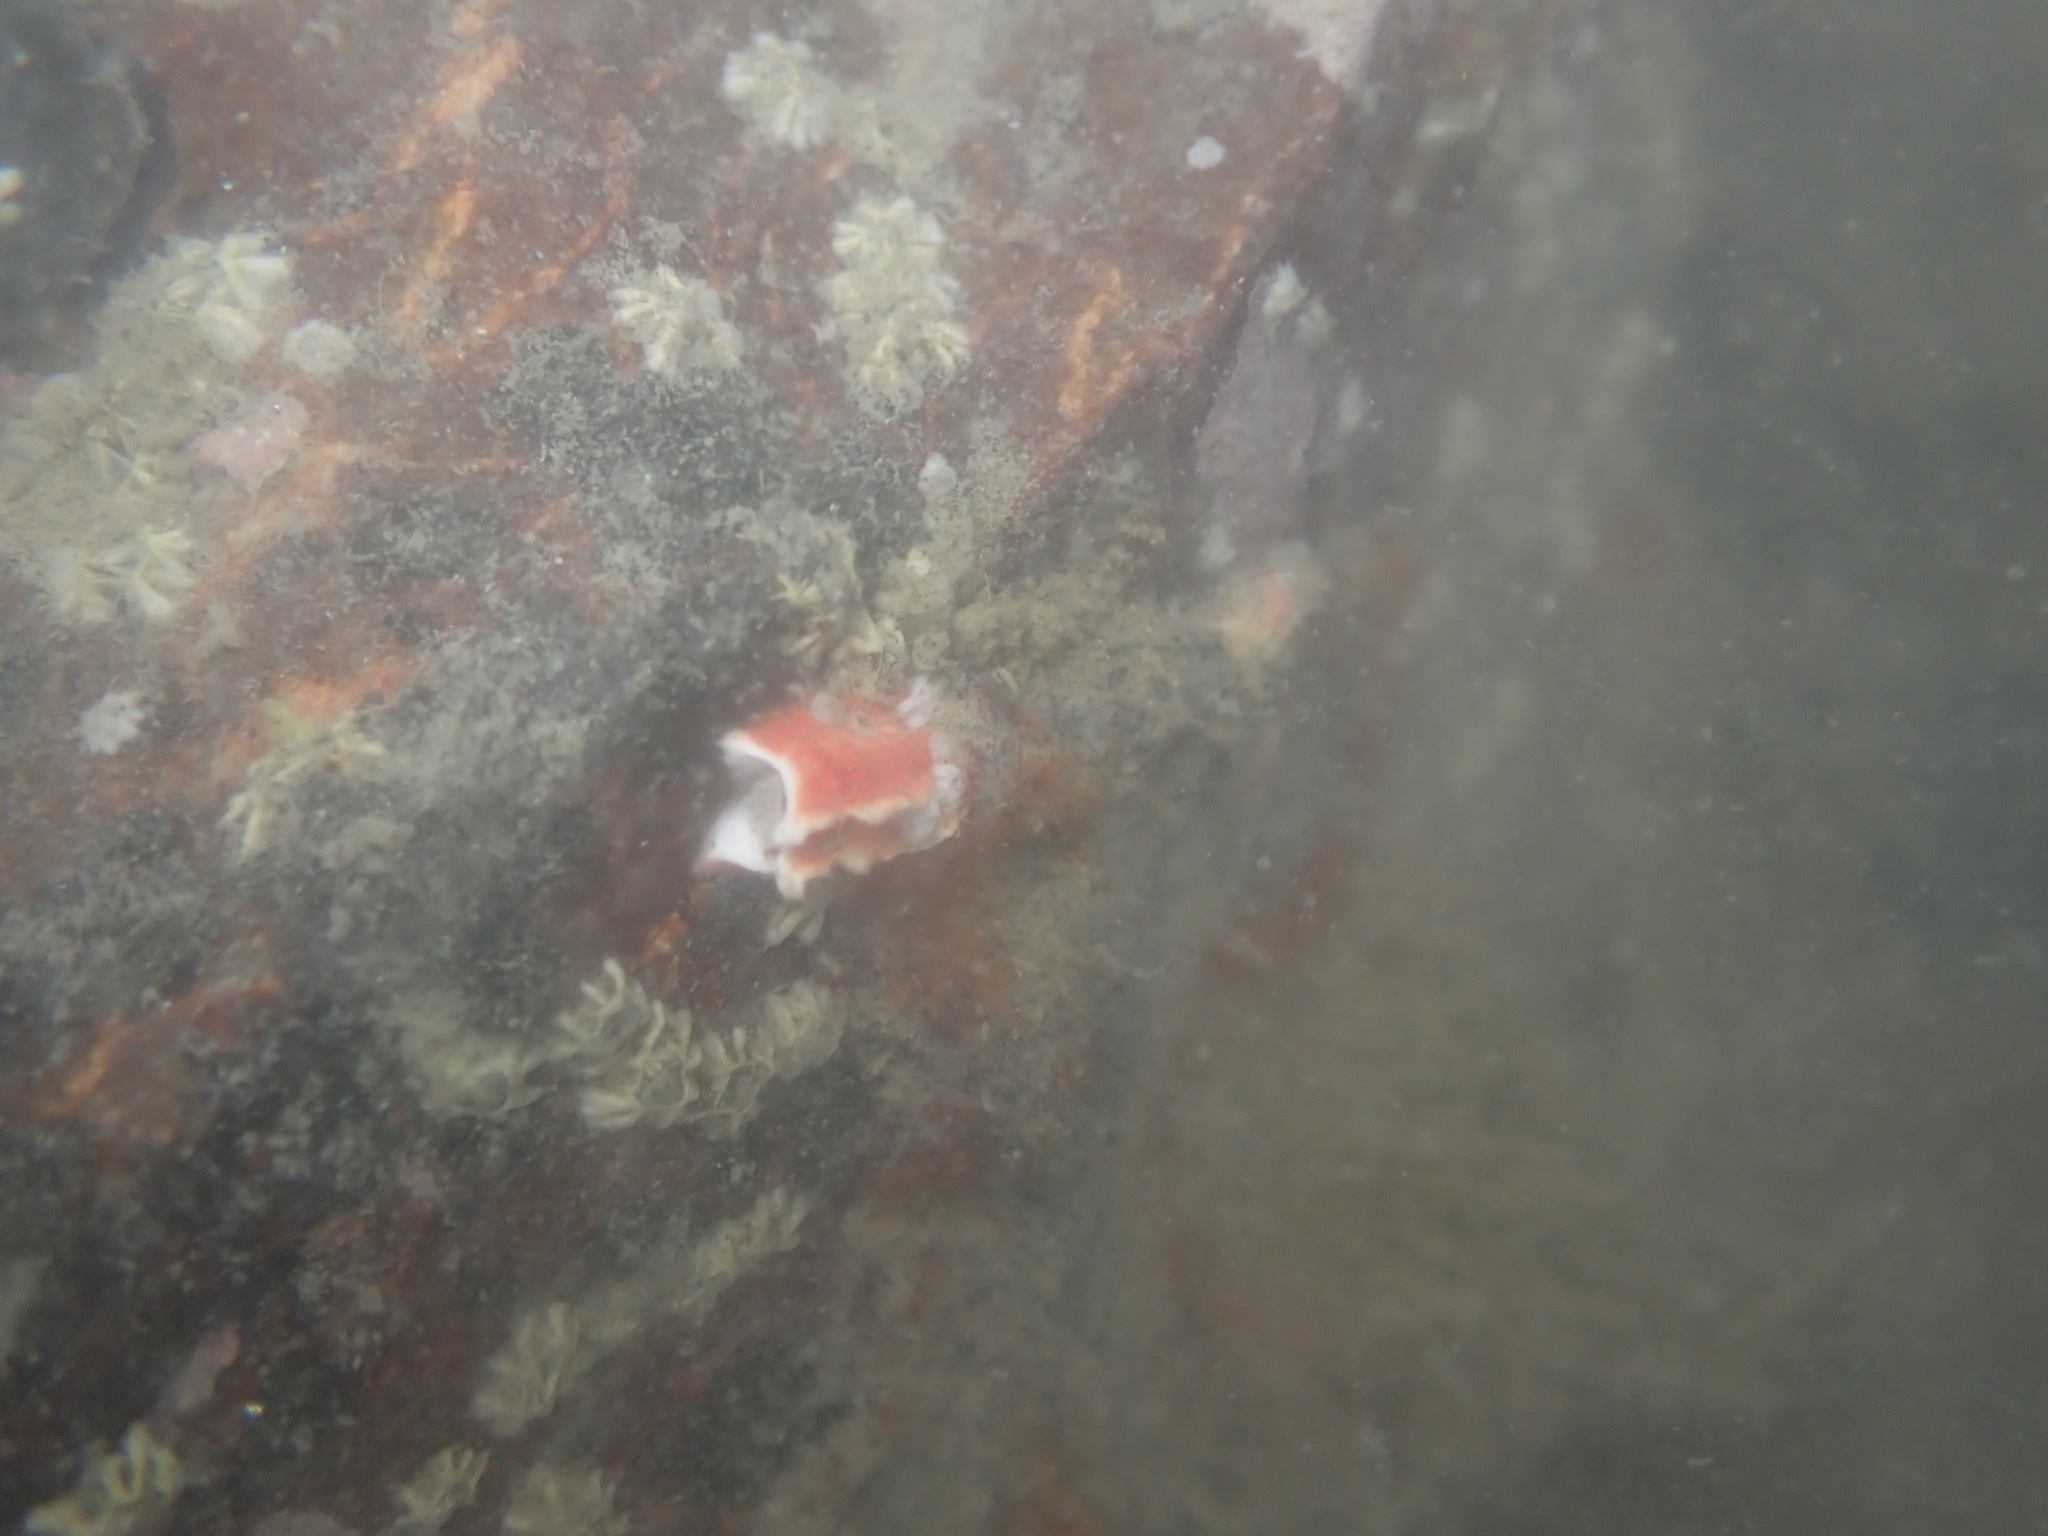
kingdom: Animalia
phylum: Annelida
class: Polychaeta
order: Sabellida
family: Serpulidae
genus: Galeolaria
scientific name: Galeolaria hystrix
